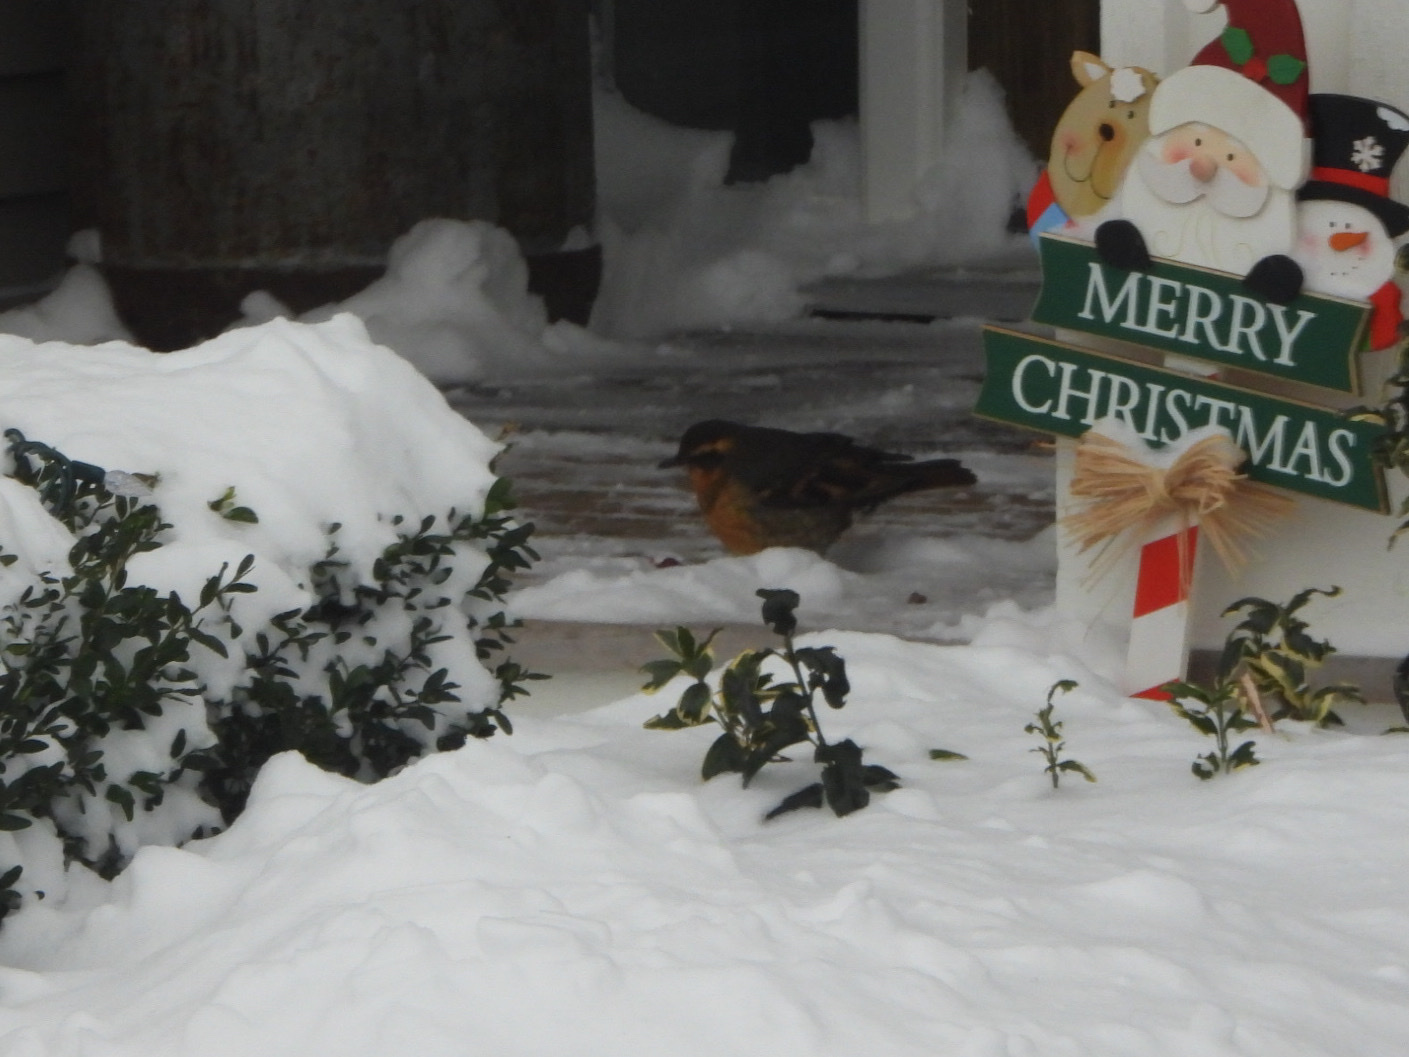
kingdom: Animalia
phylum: Chordata
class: Aves
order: Passeriformes
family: Turdidae
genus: Ixoreus
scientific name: Ixoreus naevius
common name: Varied thrush
